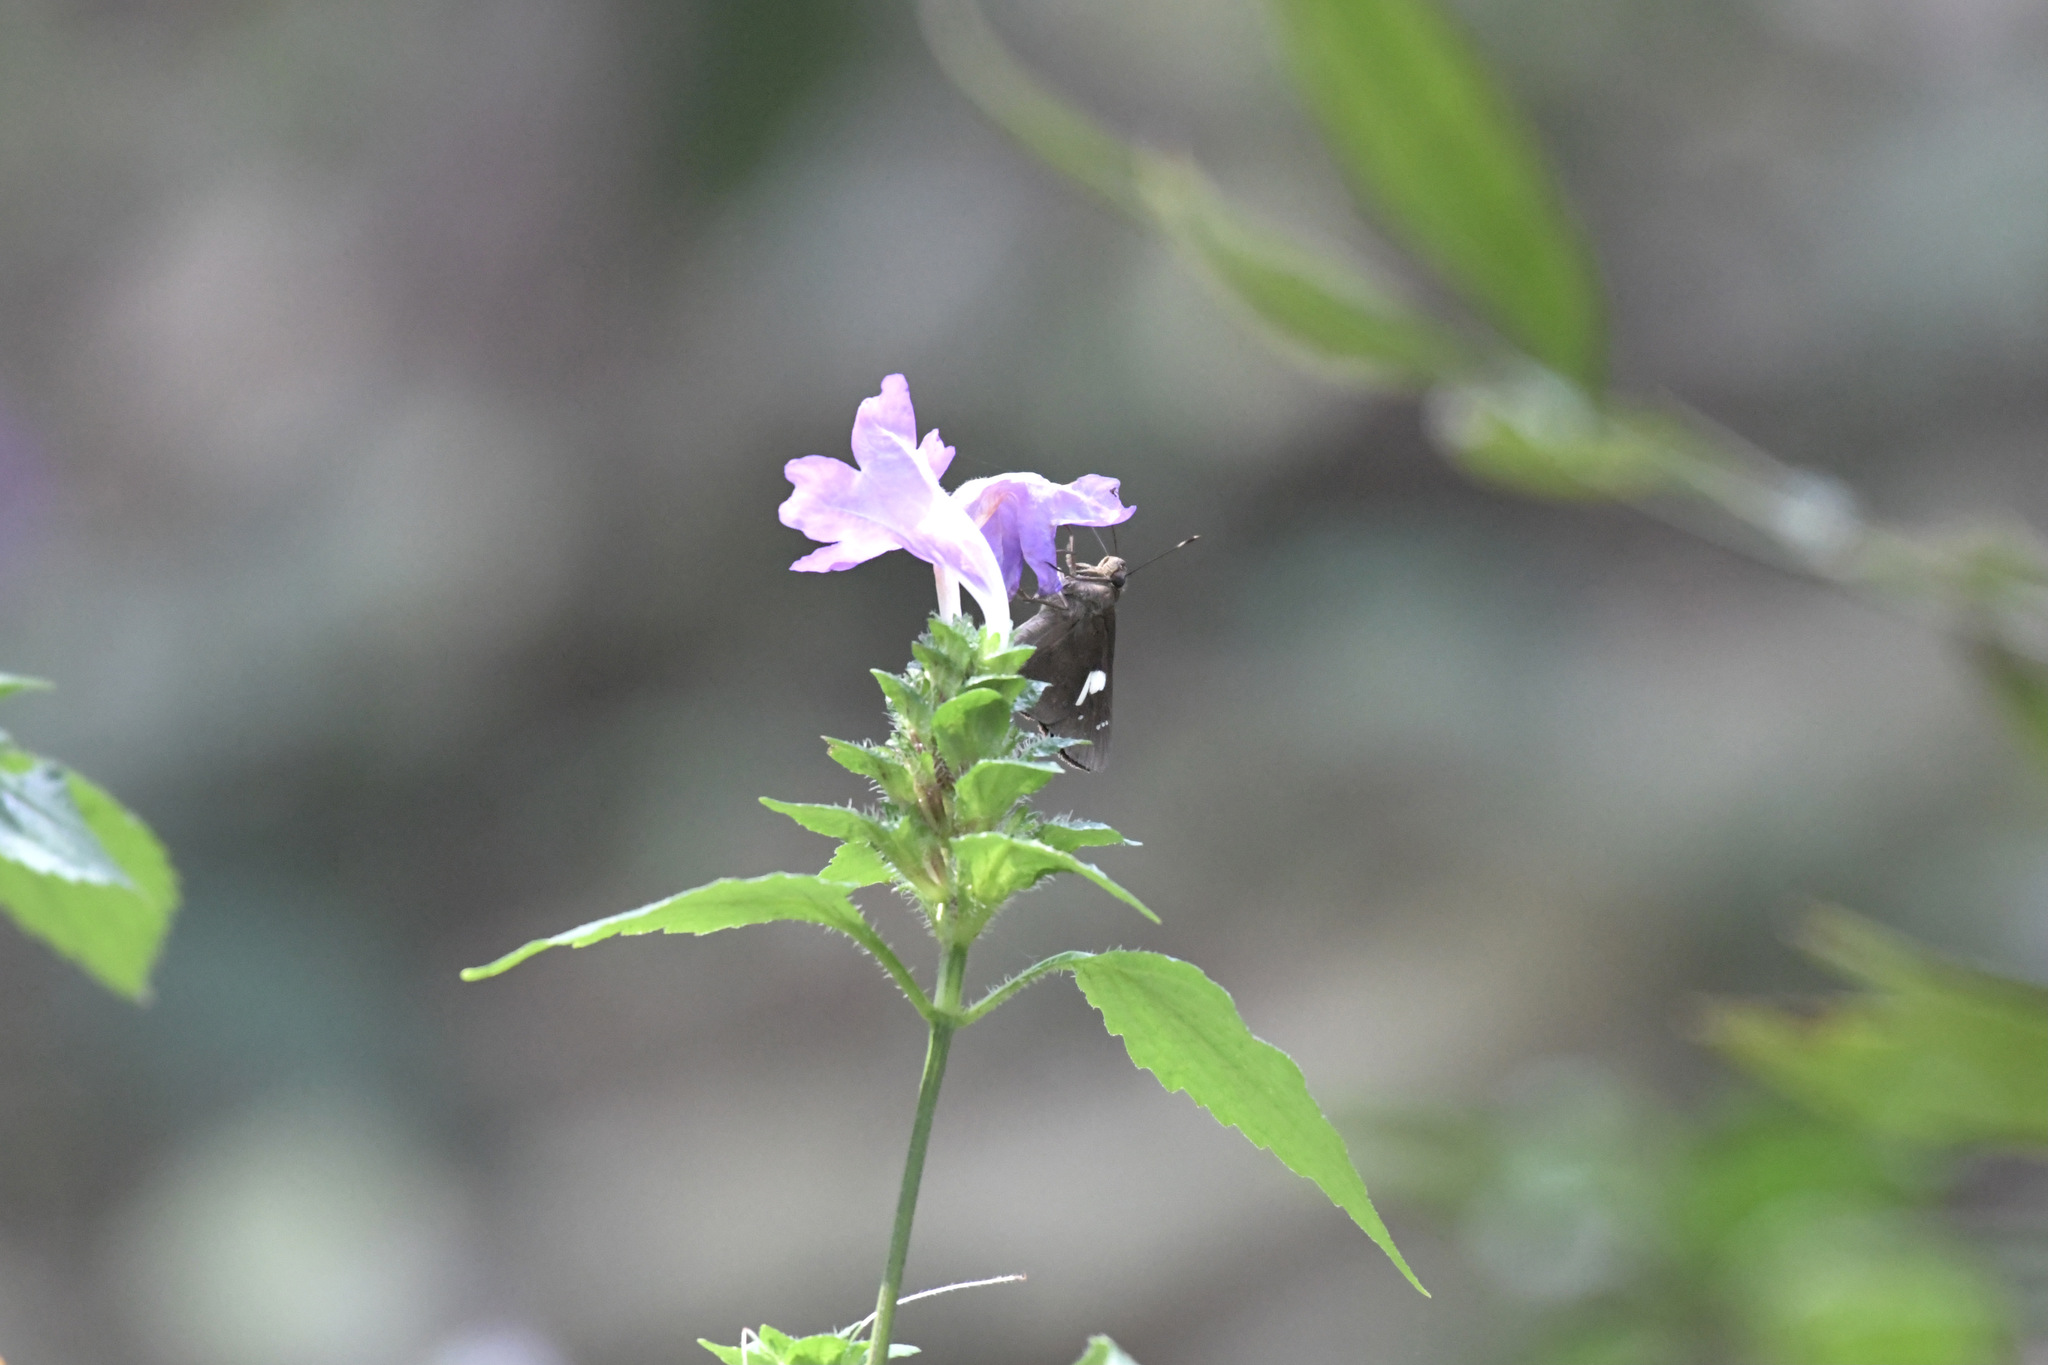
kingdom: Animalia
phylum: Arthropoda
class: Insecta
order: Lepidoptera
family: Hesperiidae
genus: Notocrypta
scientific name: Notocrypta curvifascia
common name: Restricted demon
